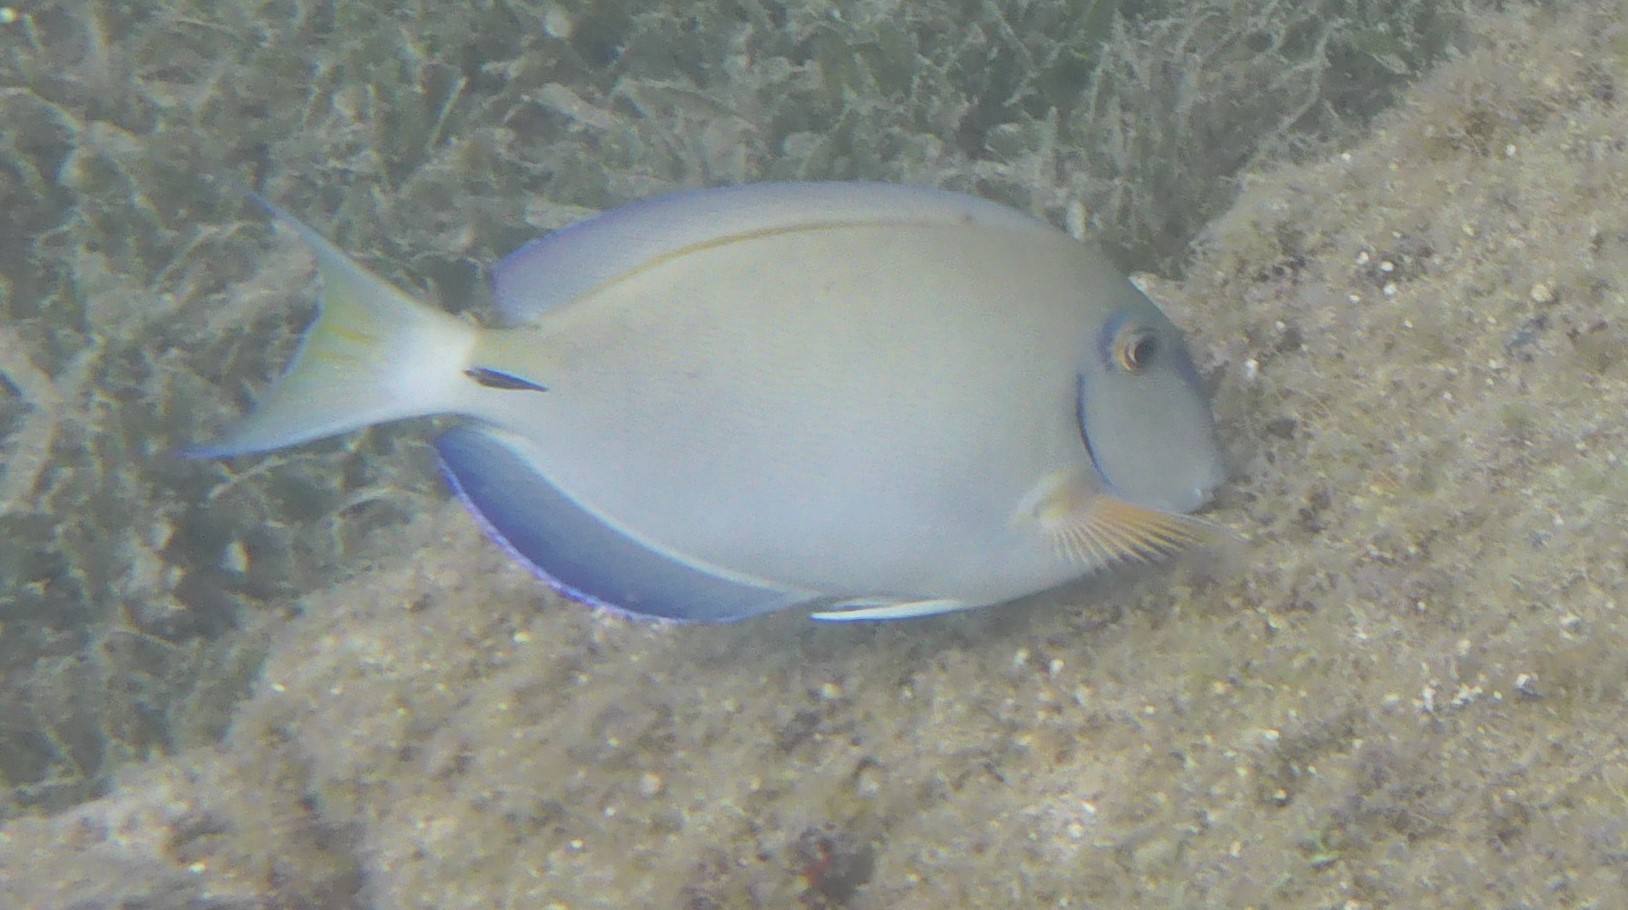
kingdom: Animalia
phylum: Chordata
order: Perciformes
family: Acanthuridae
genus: Acanthurus
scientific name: Acanthurus bahianus
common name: Ocean surgeon
